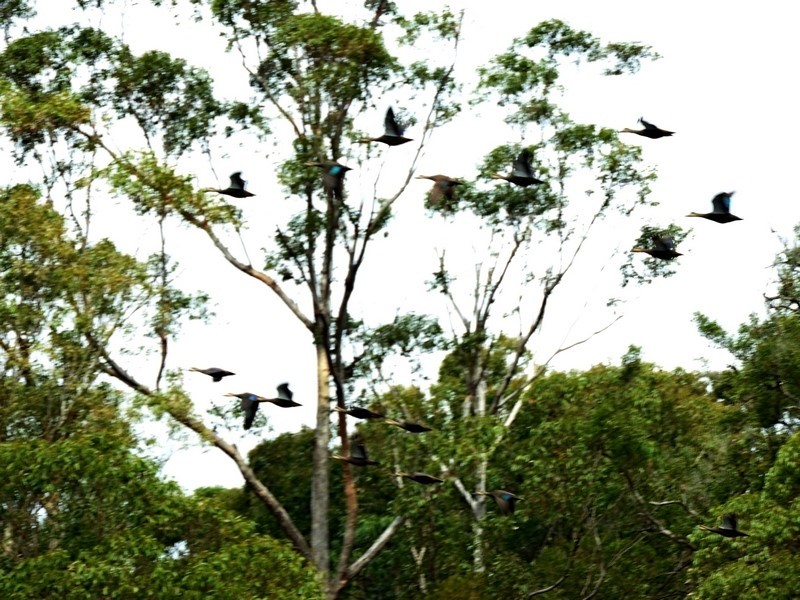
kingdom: Animalia
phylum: Chordata
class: Aves
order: Anseriformes
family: Anatidae
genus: Anas
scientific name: Anas superciliosa
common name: Pacific black duck
